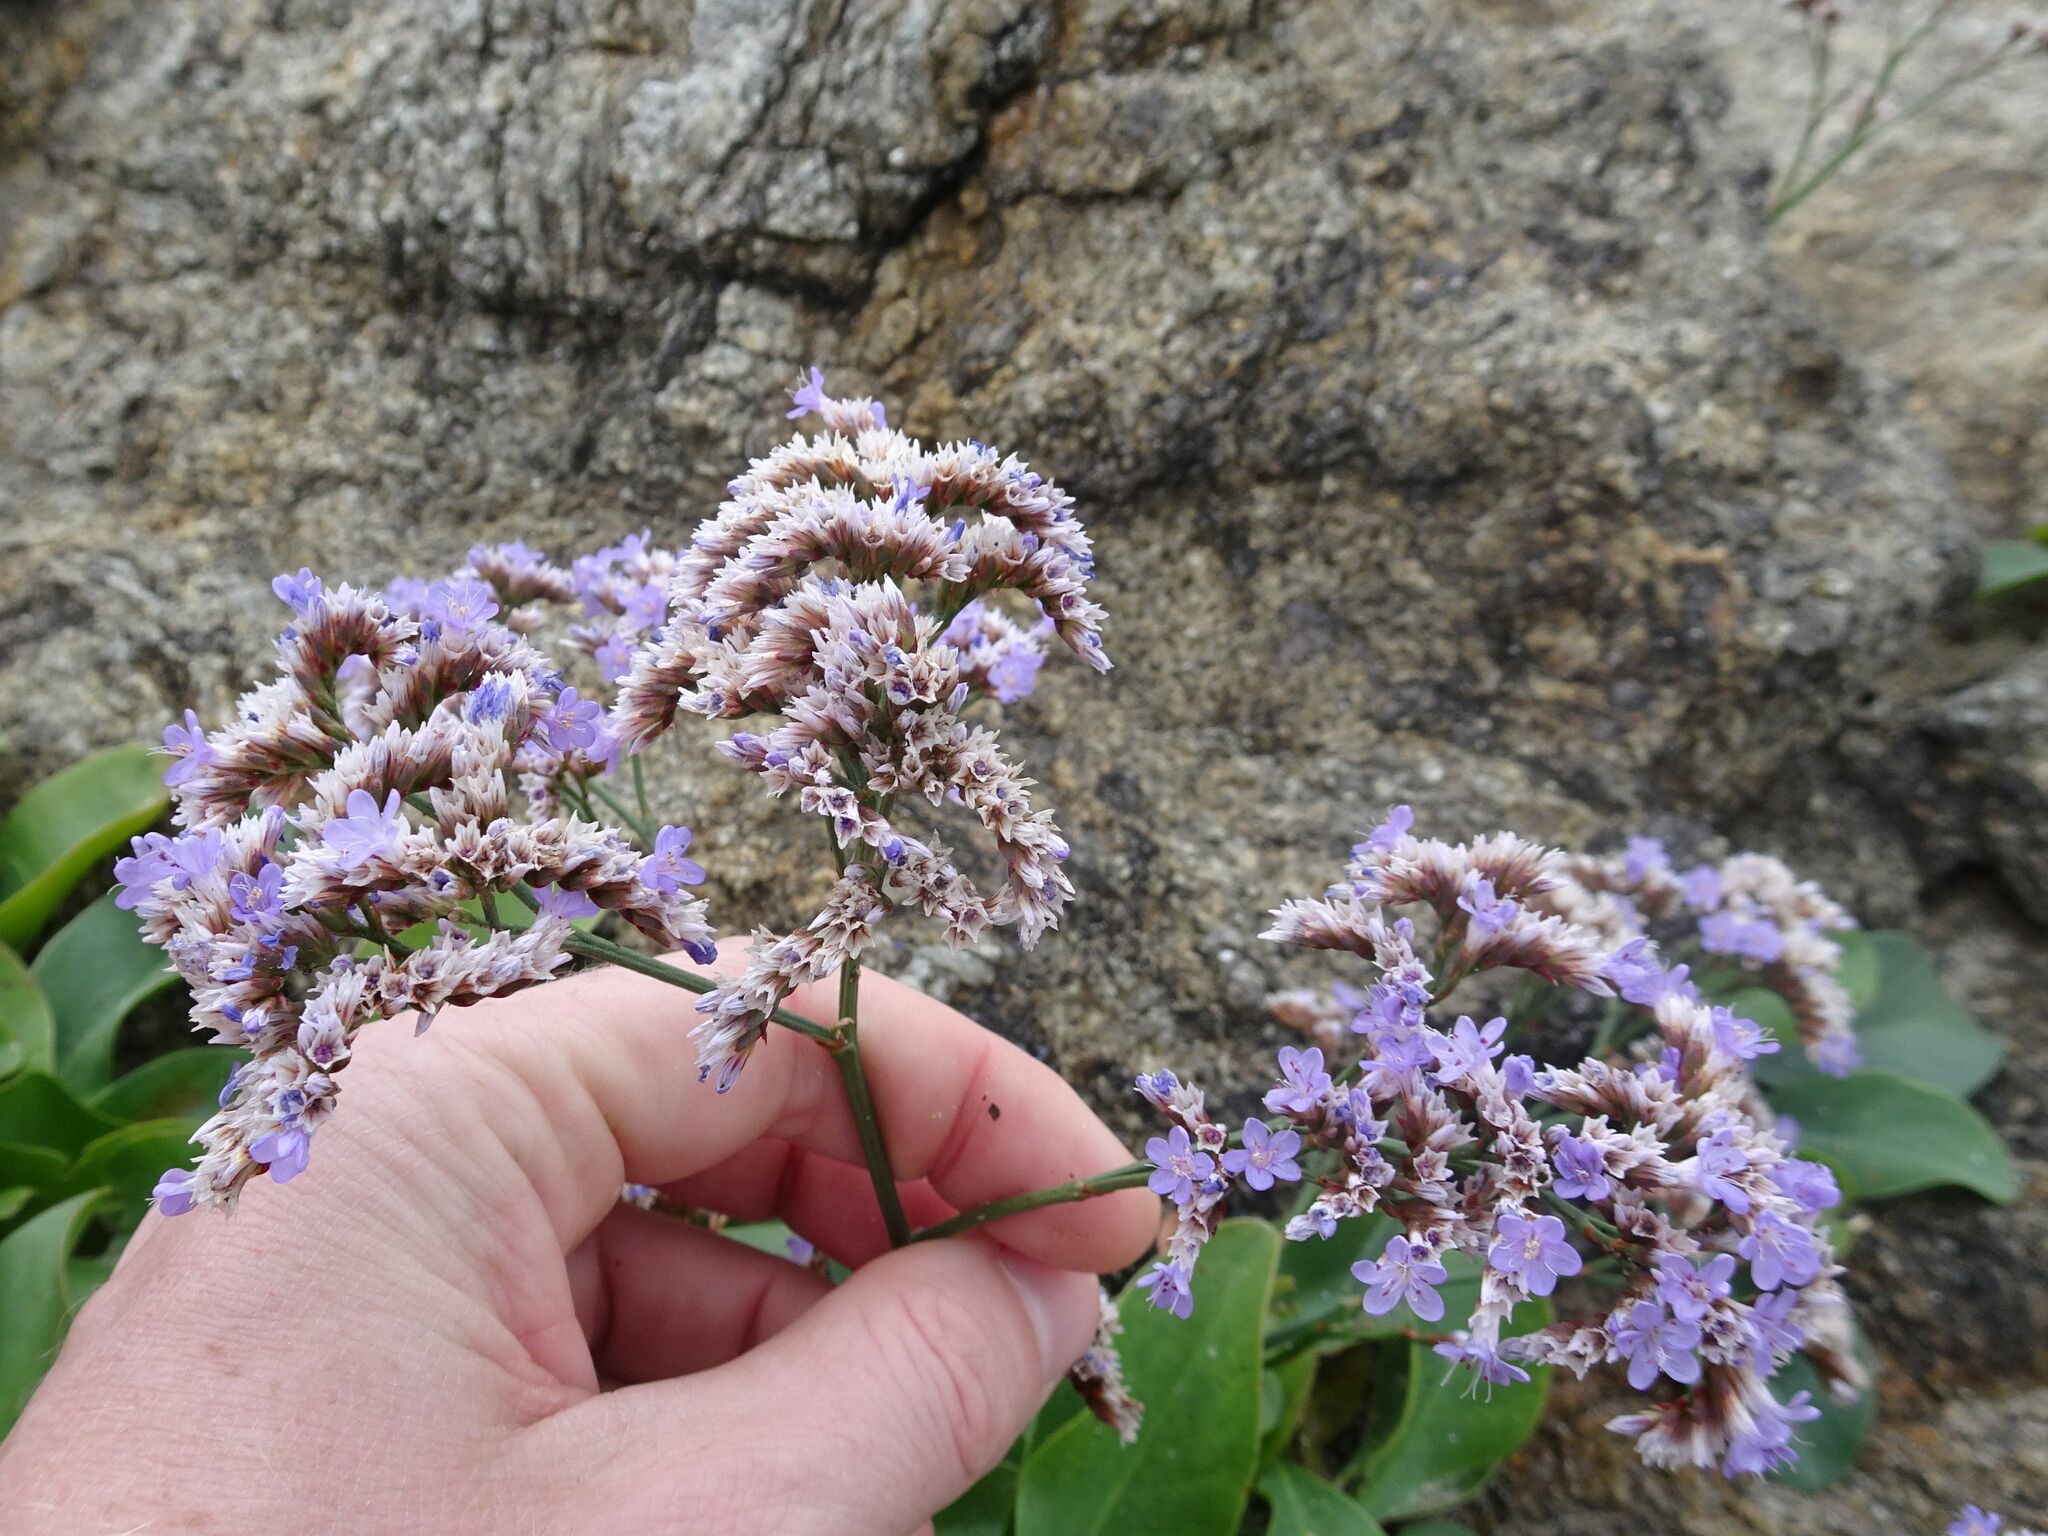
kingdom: Plantae
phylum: Tracheophyta
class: Magnoliopsida
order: Caryophyllales
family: Plumbaginaceae
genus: Limonium
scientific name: Limonium vulgare
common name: Common sea-lavender
